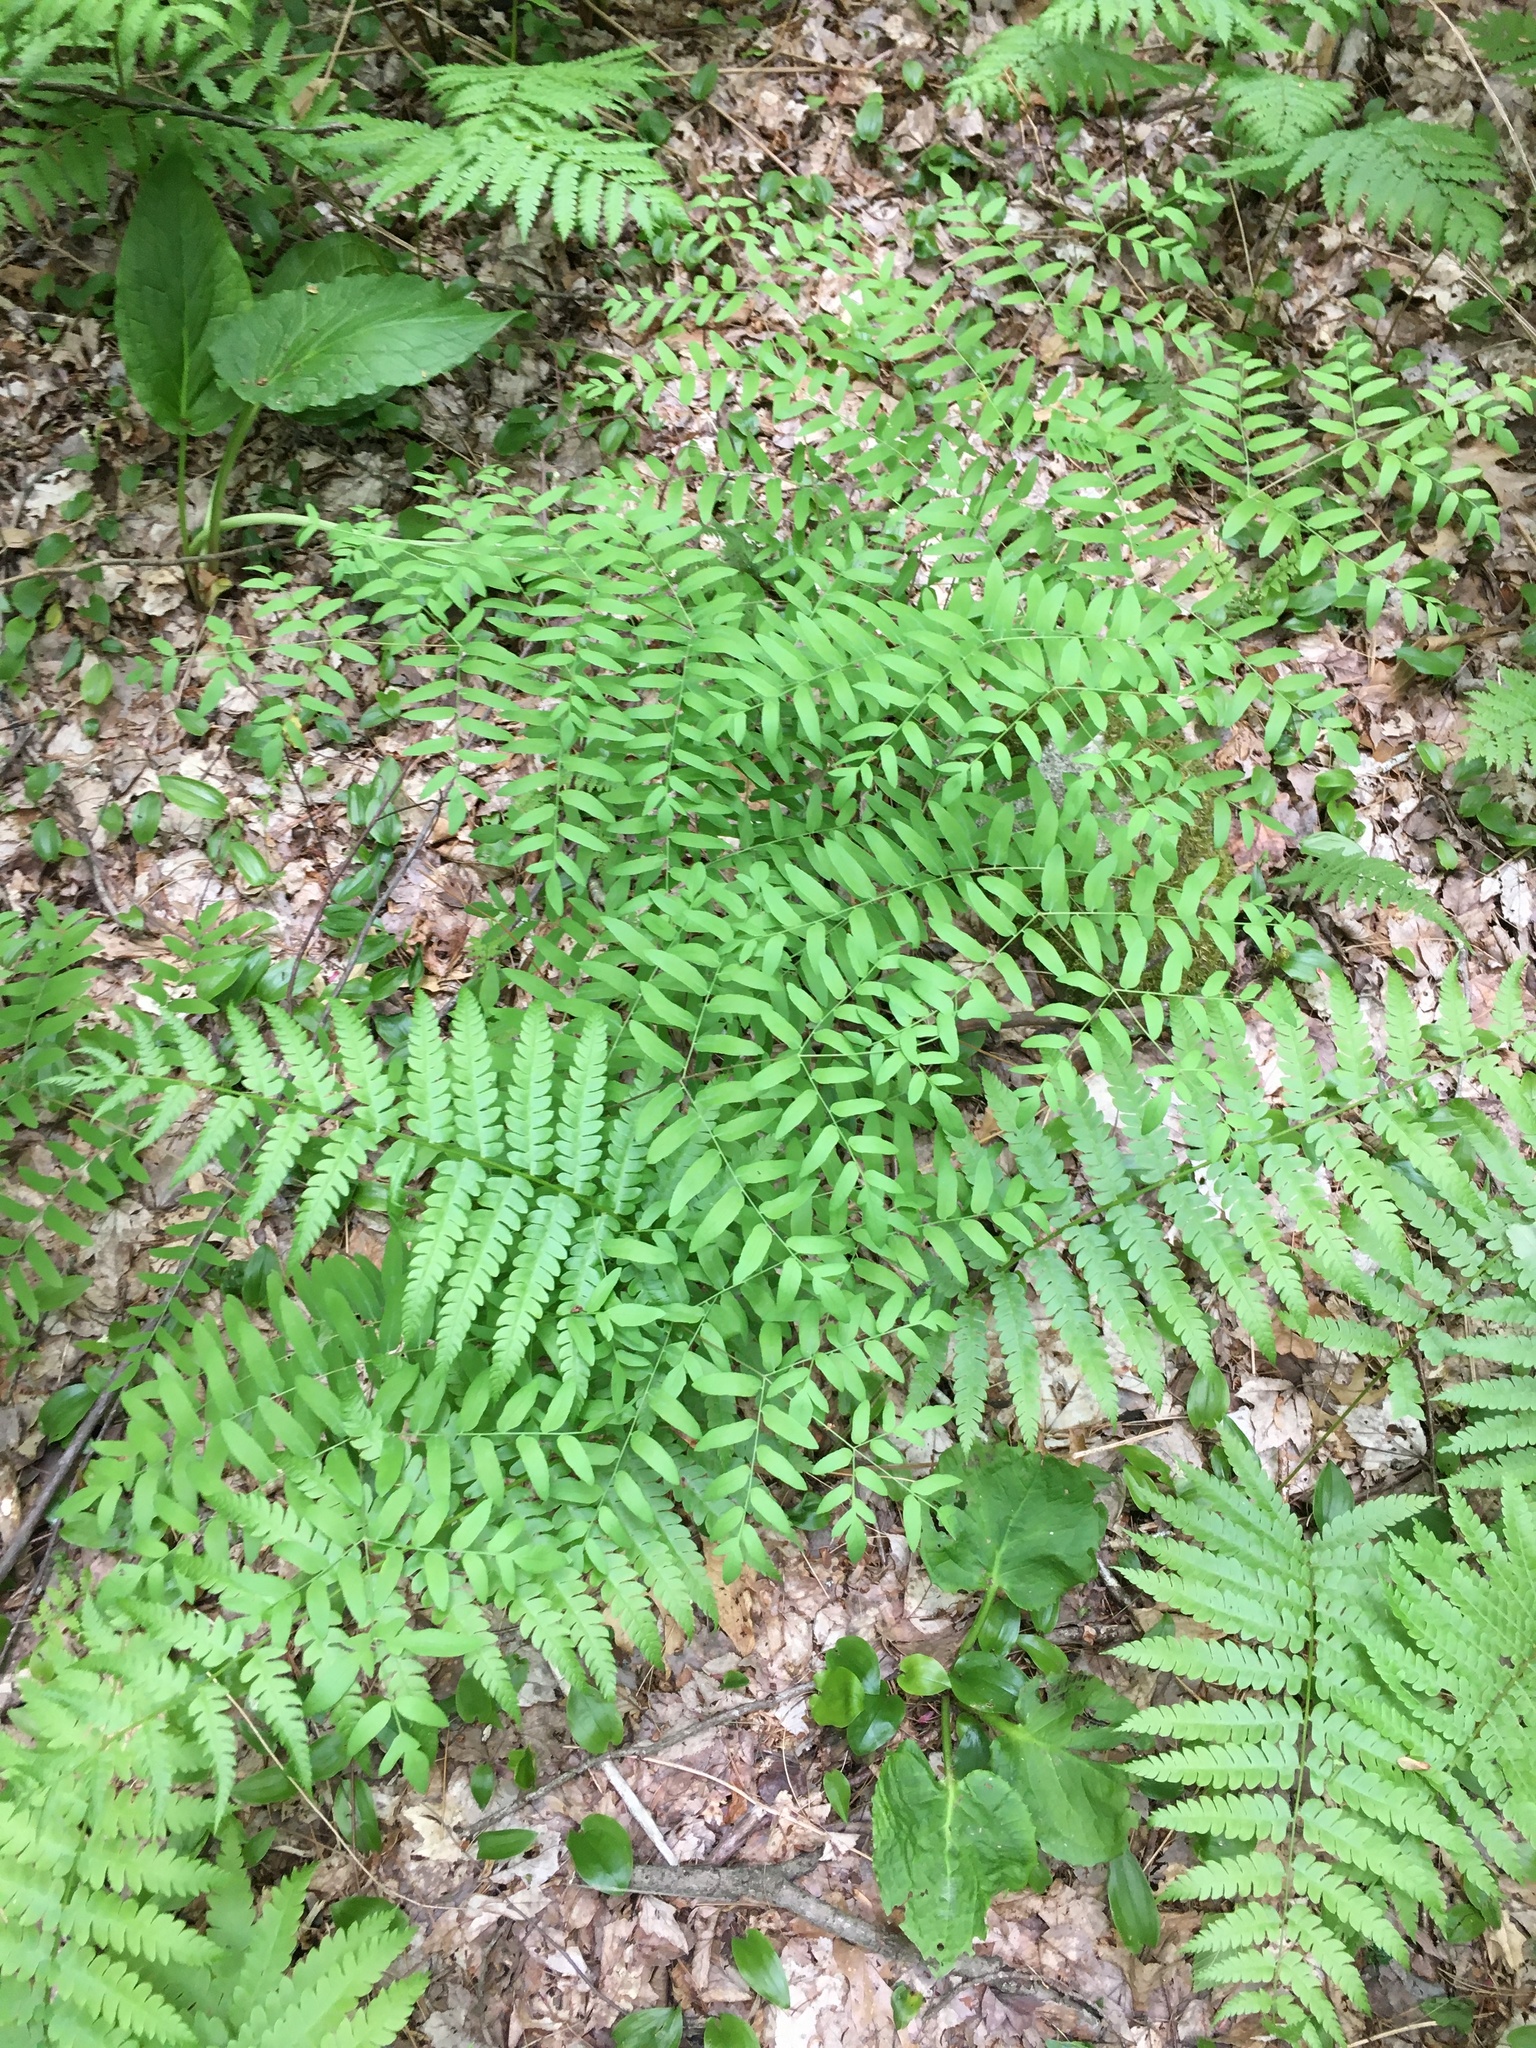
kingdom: Plantae
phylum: Tracheophyta
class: Polypodiopsida
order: Osmundales
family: Osmundaceae
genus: Osmunda
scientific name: Osmunda spectabilis
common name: American royal fern
